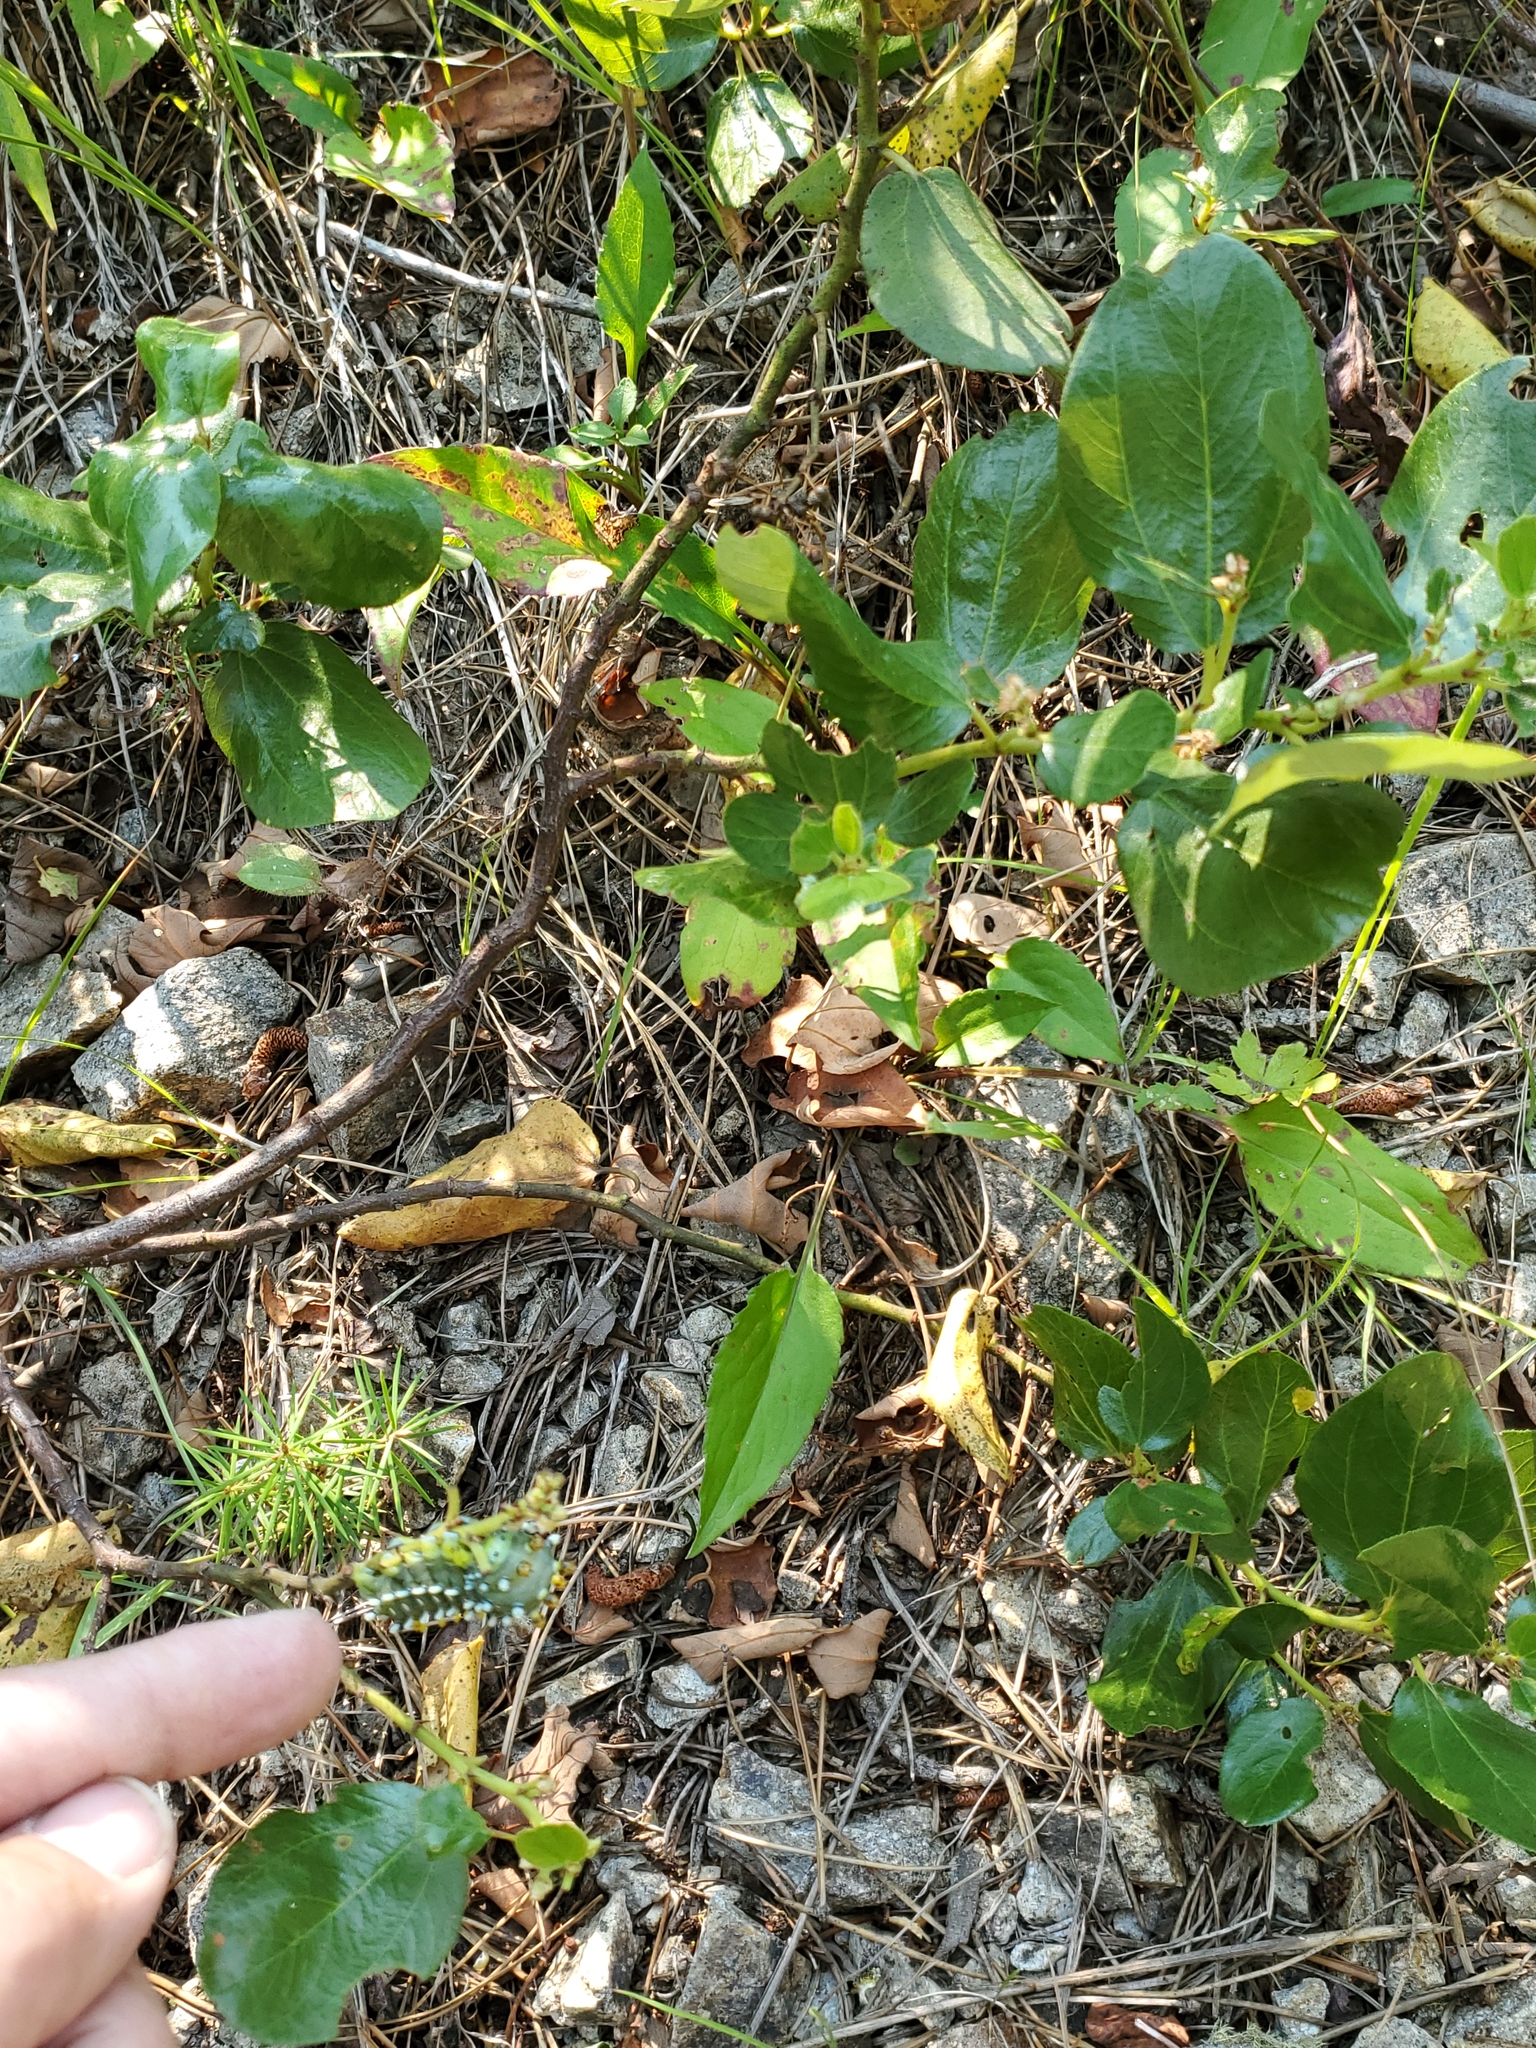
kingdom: Animalia
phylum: Arthropoda
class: Insecta
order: Lepidoptera
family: Saturniidae
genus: Hyalophora
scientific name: Hyalophora gloveri
